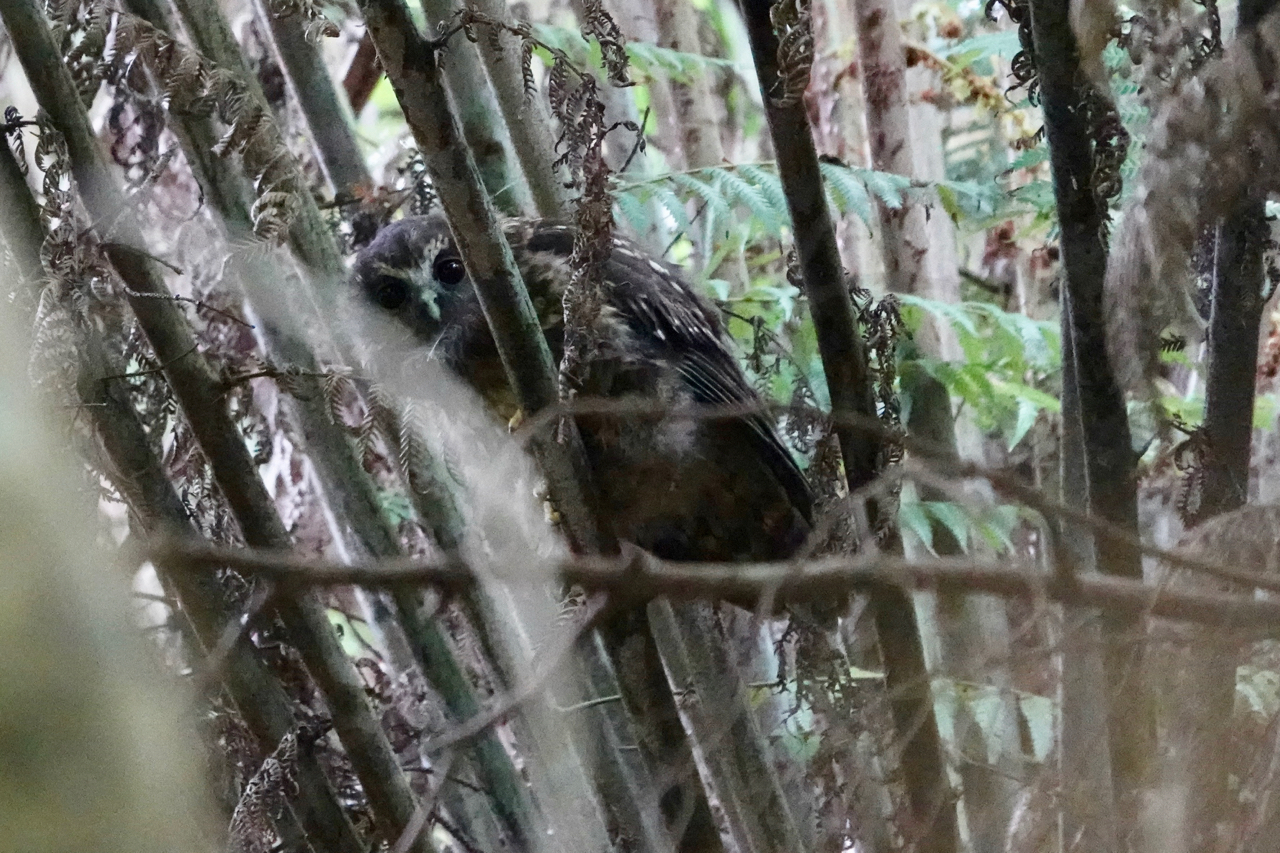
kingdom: Animalia
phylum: Chordata
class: Aves
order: Strigiformes
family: Strigidae
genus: Ninox
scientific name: Ninox novaeseelandiae
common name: Morepork
